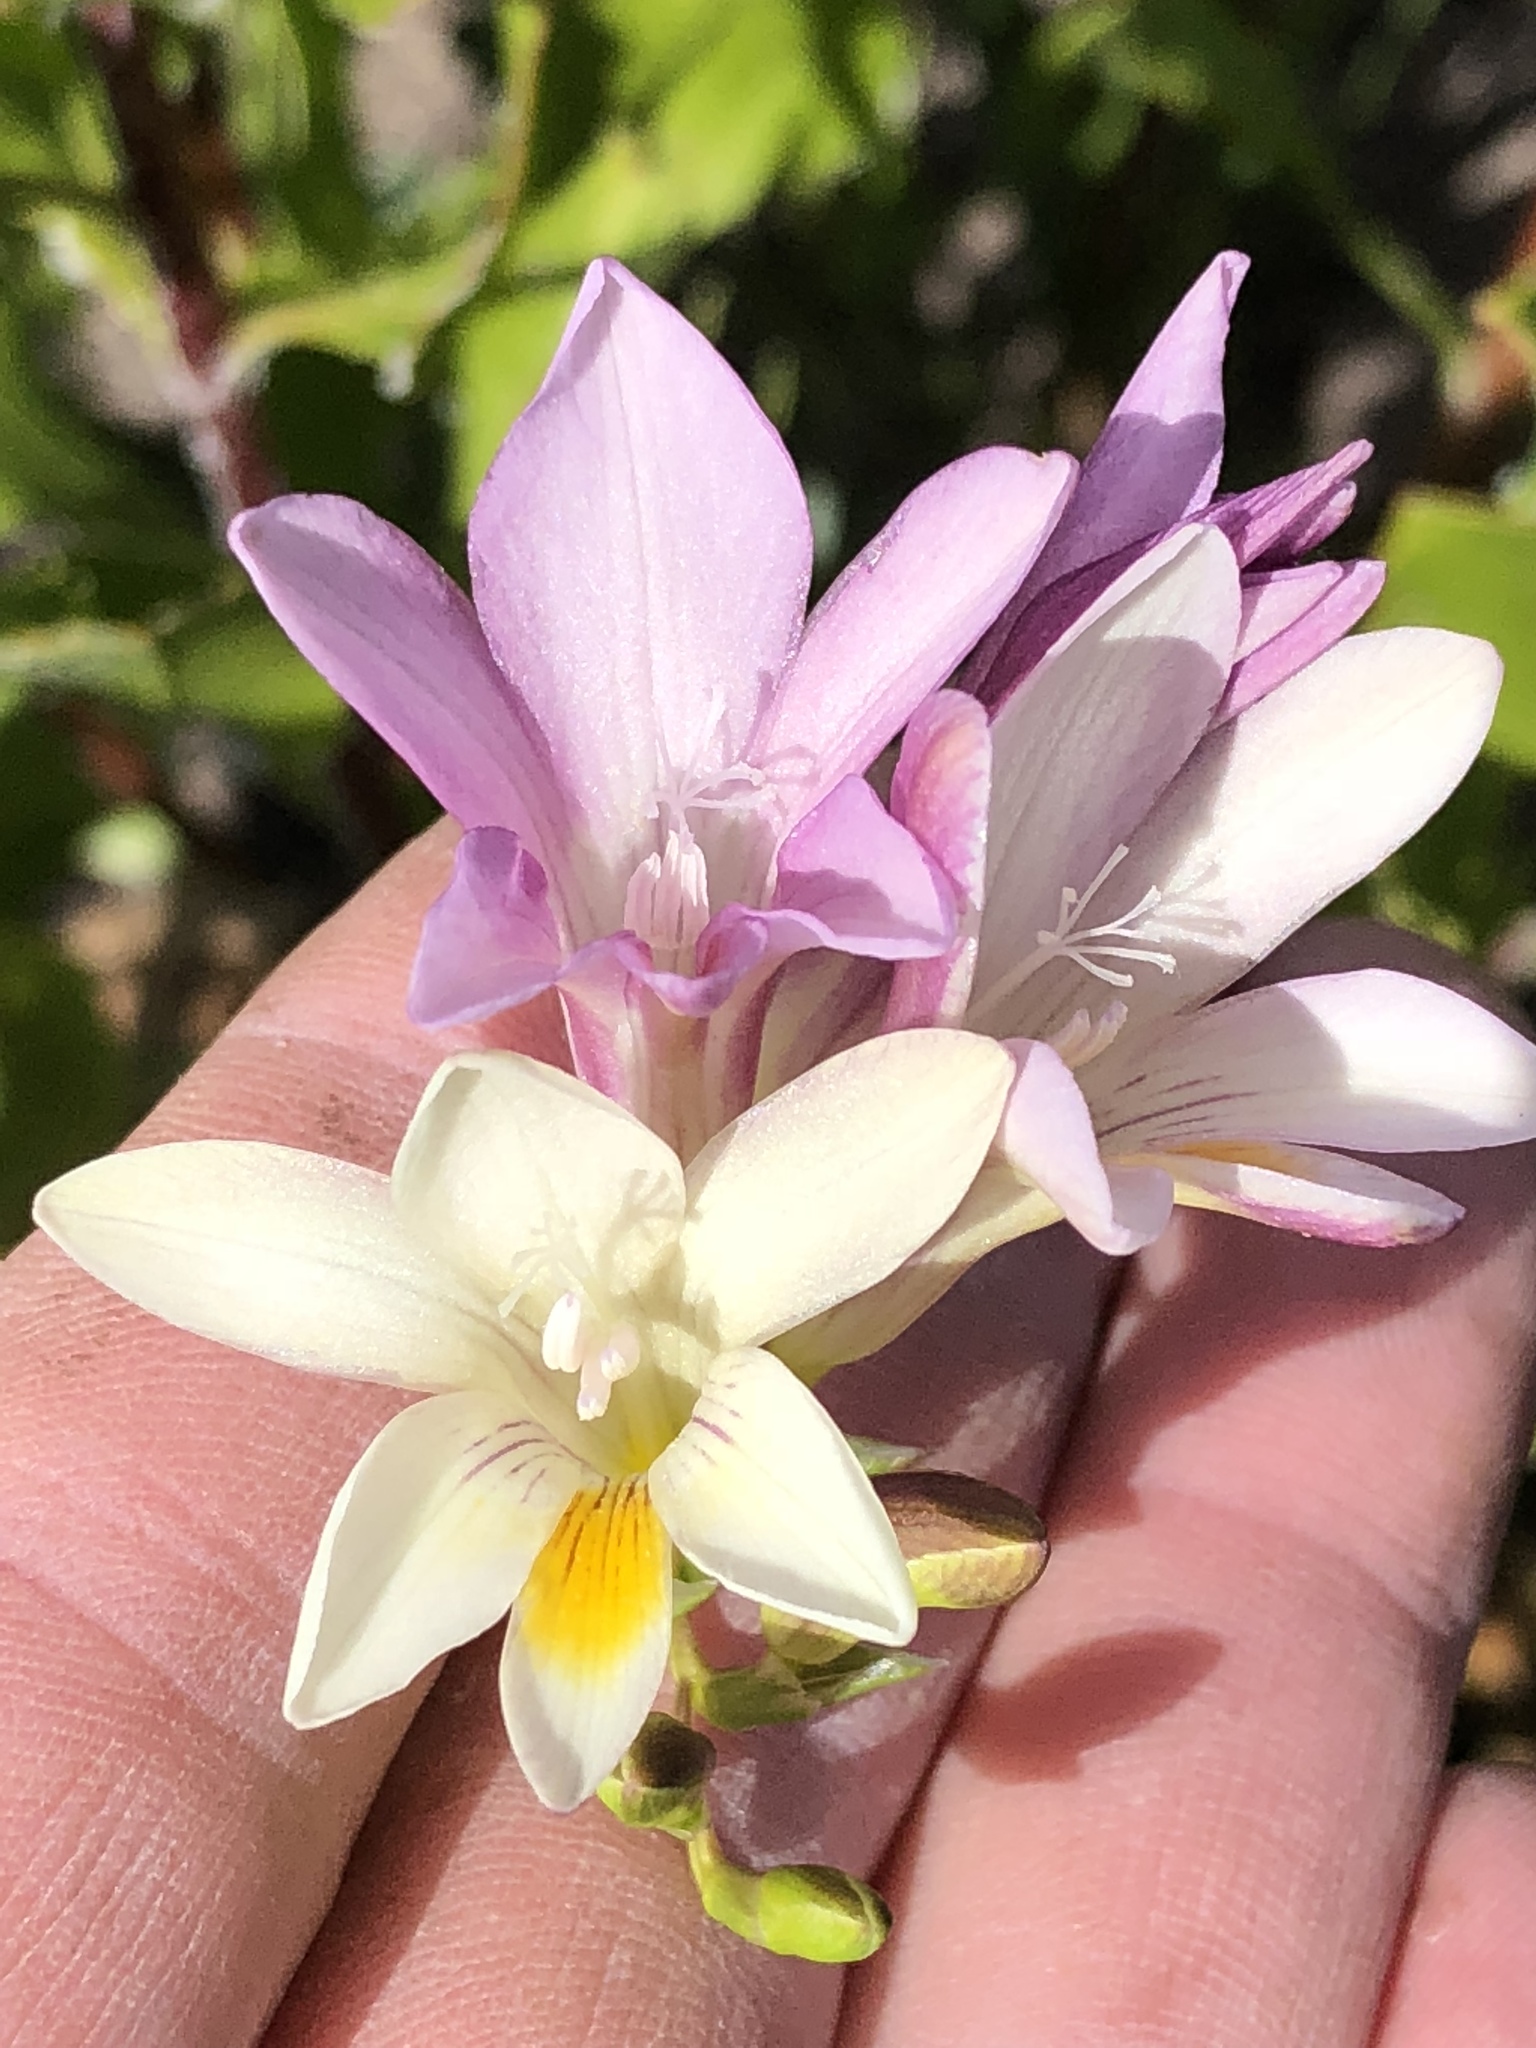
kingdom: Plantae
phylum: Tracheophyta
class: Liliopsida
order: Asparagales
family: Iridaceae
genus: Freesia
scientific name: Freesia leichtlinii
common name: Freesia
